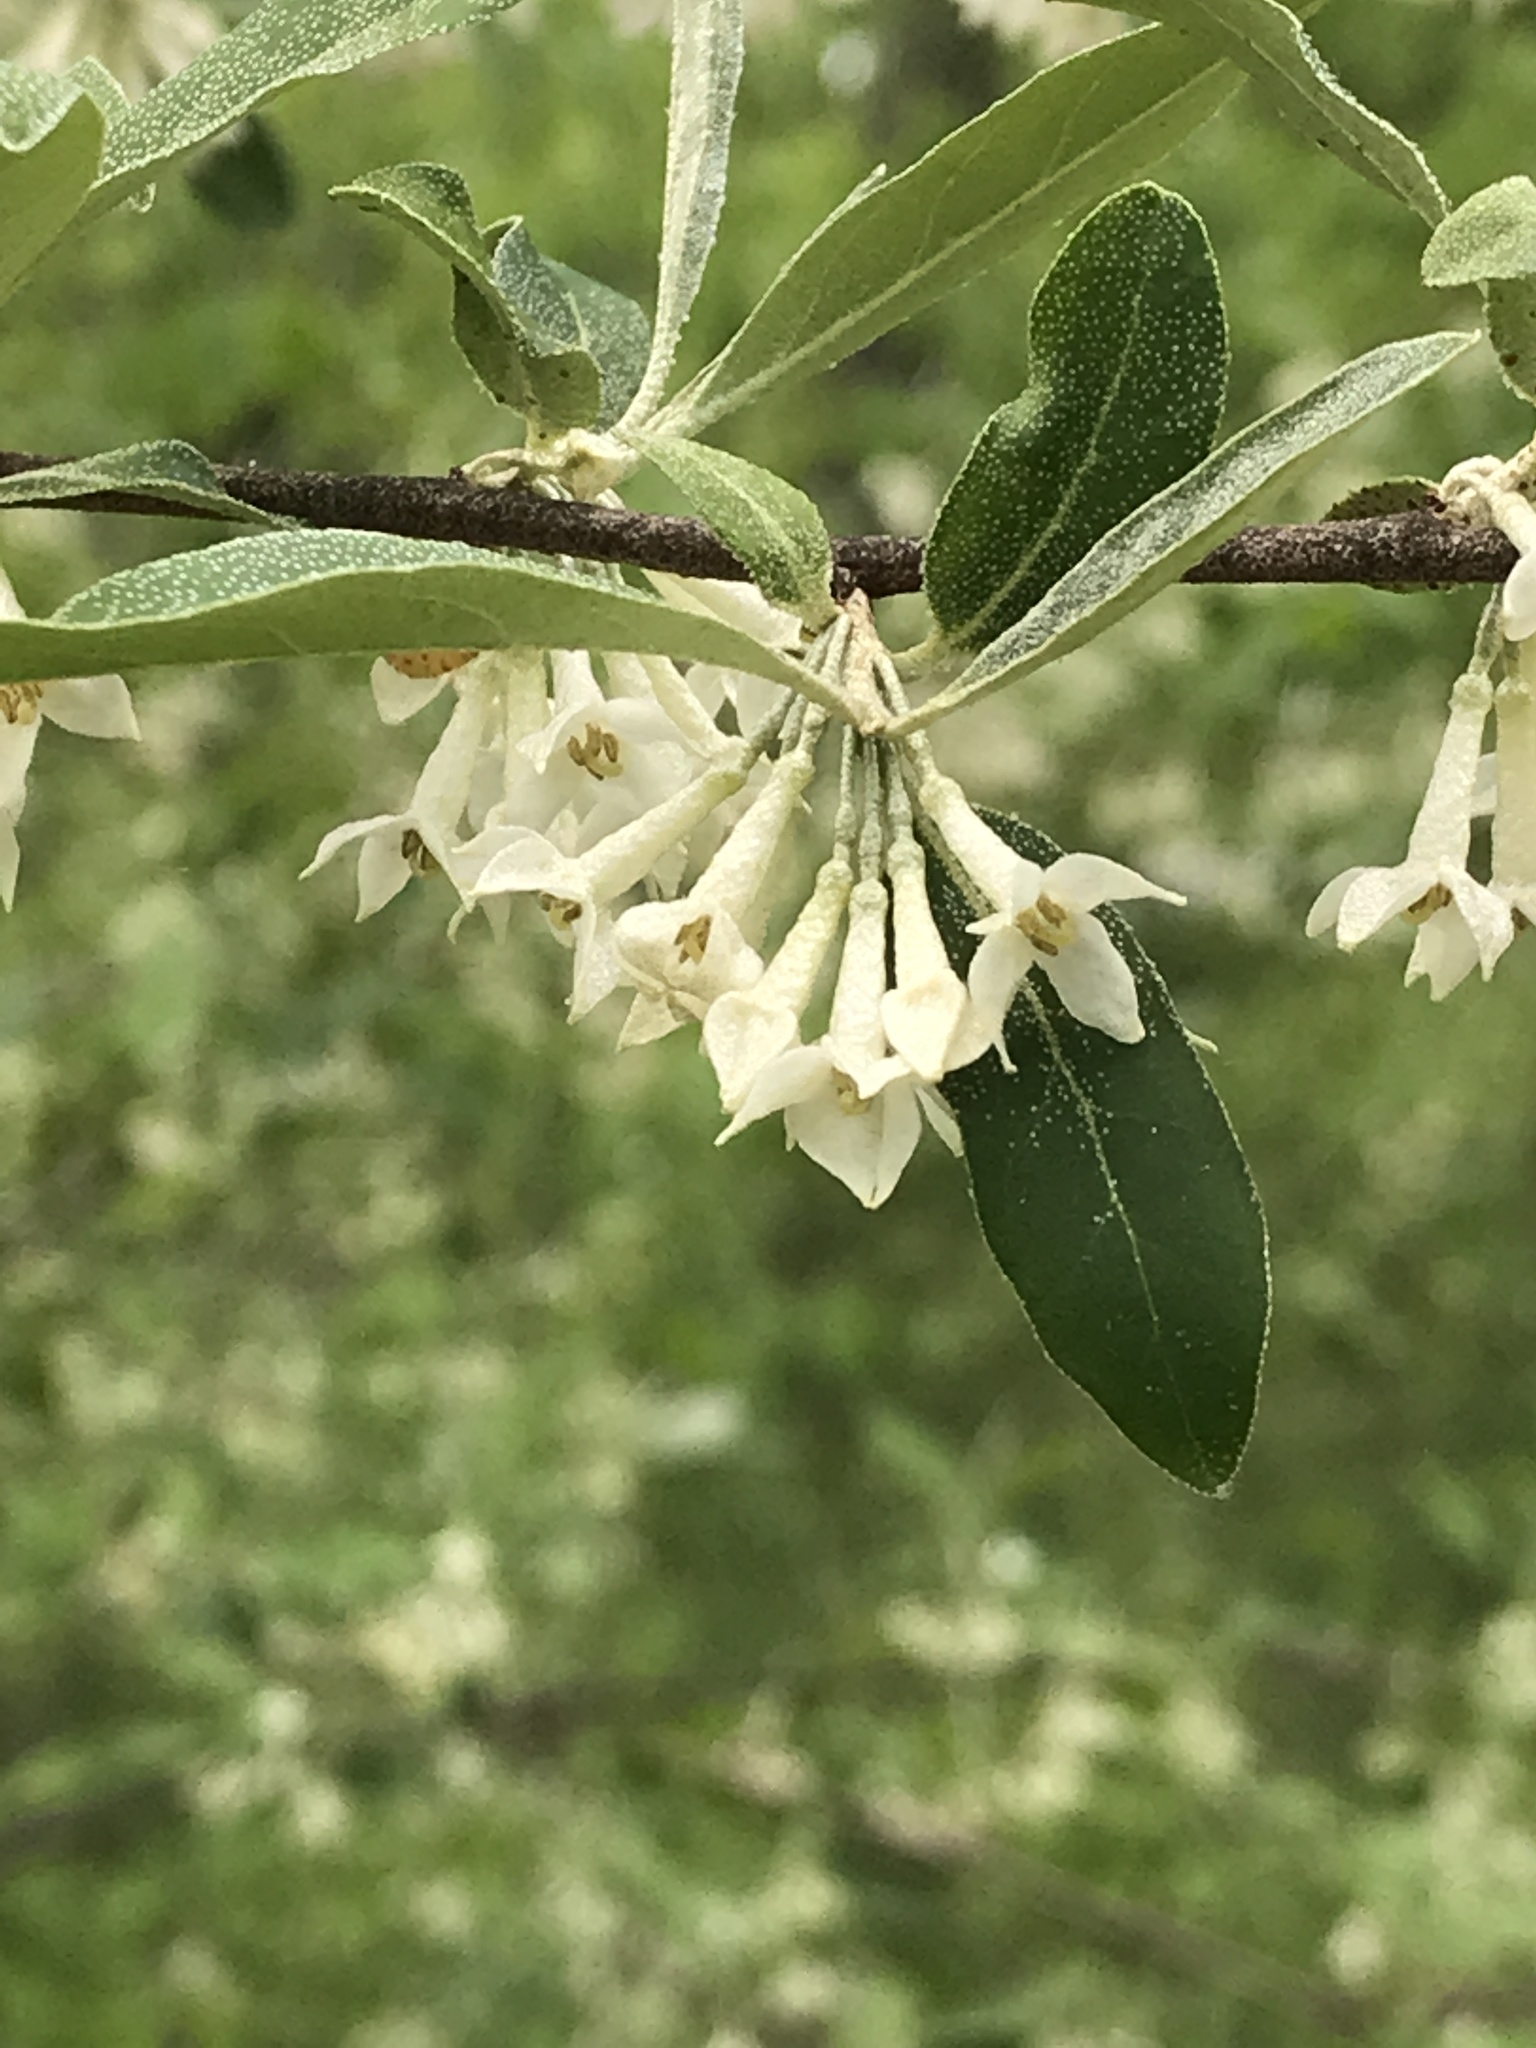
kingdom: Plantae
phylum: Tracheophyta
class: Magnoliopsida
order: Rosales
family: Elaeagnaceae
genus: Elaeagnus
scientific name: Elaeagnus umbellata
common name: Autumn olive
